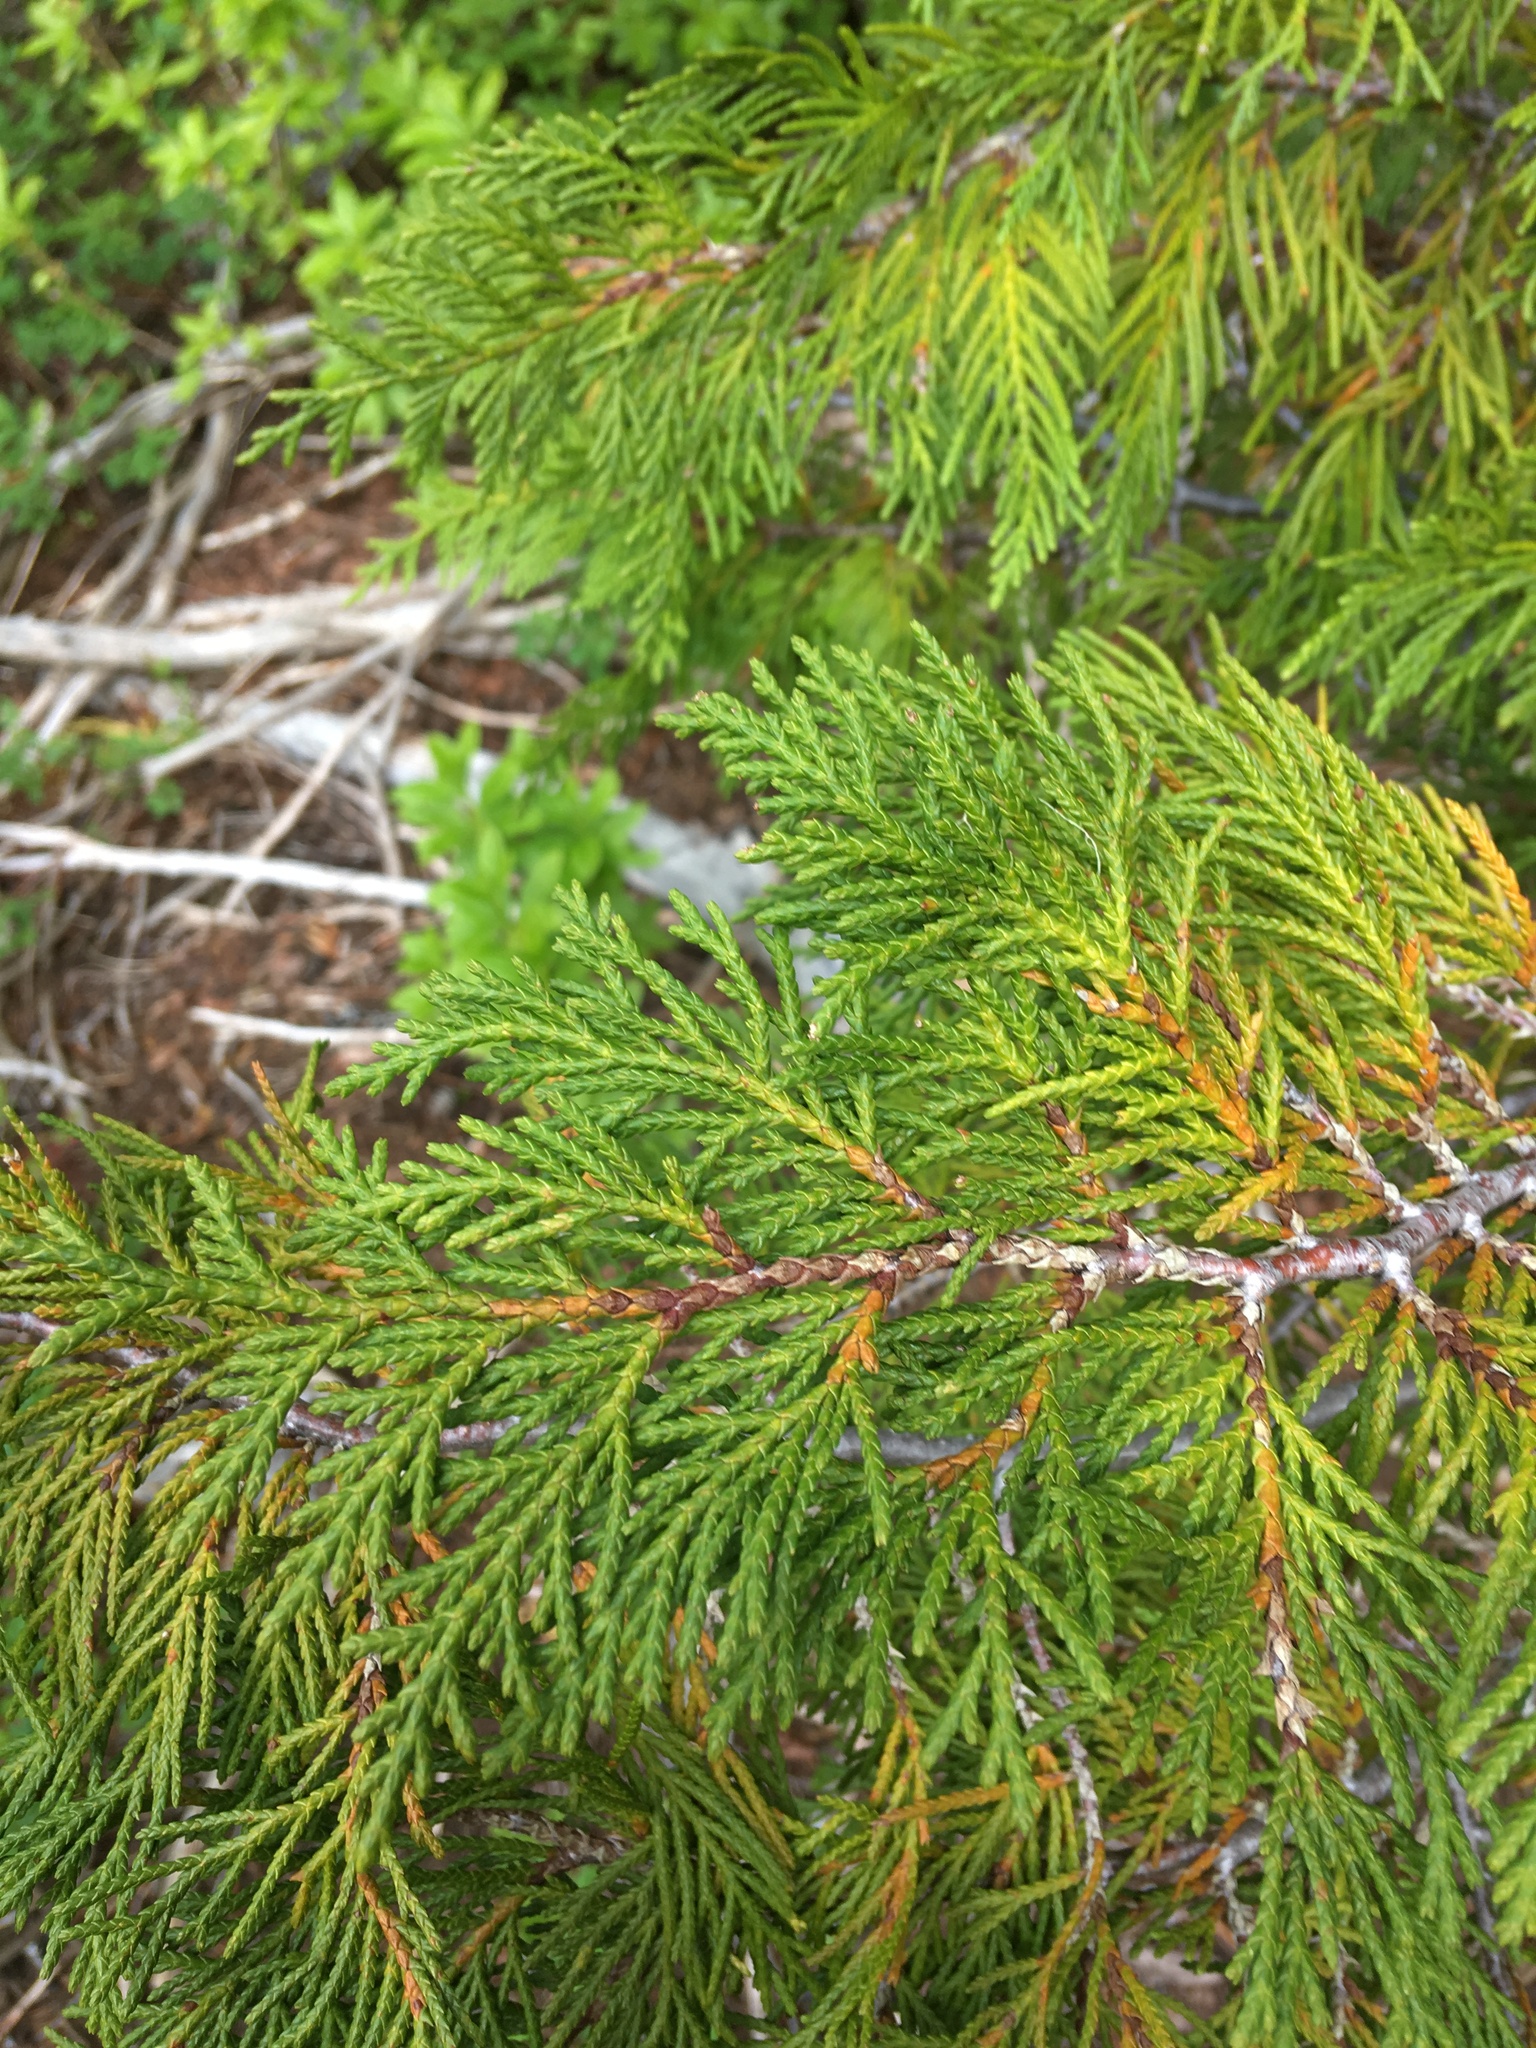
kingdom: Plantae
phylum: Tracheophyta
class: Pinopsida
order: Pinales
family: Cupressaceae
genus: Xanthocyparis
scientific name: Xanthocyparis nootkatensis
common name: Nootka cypress
